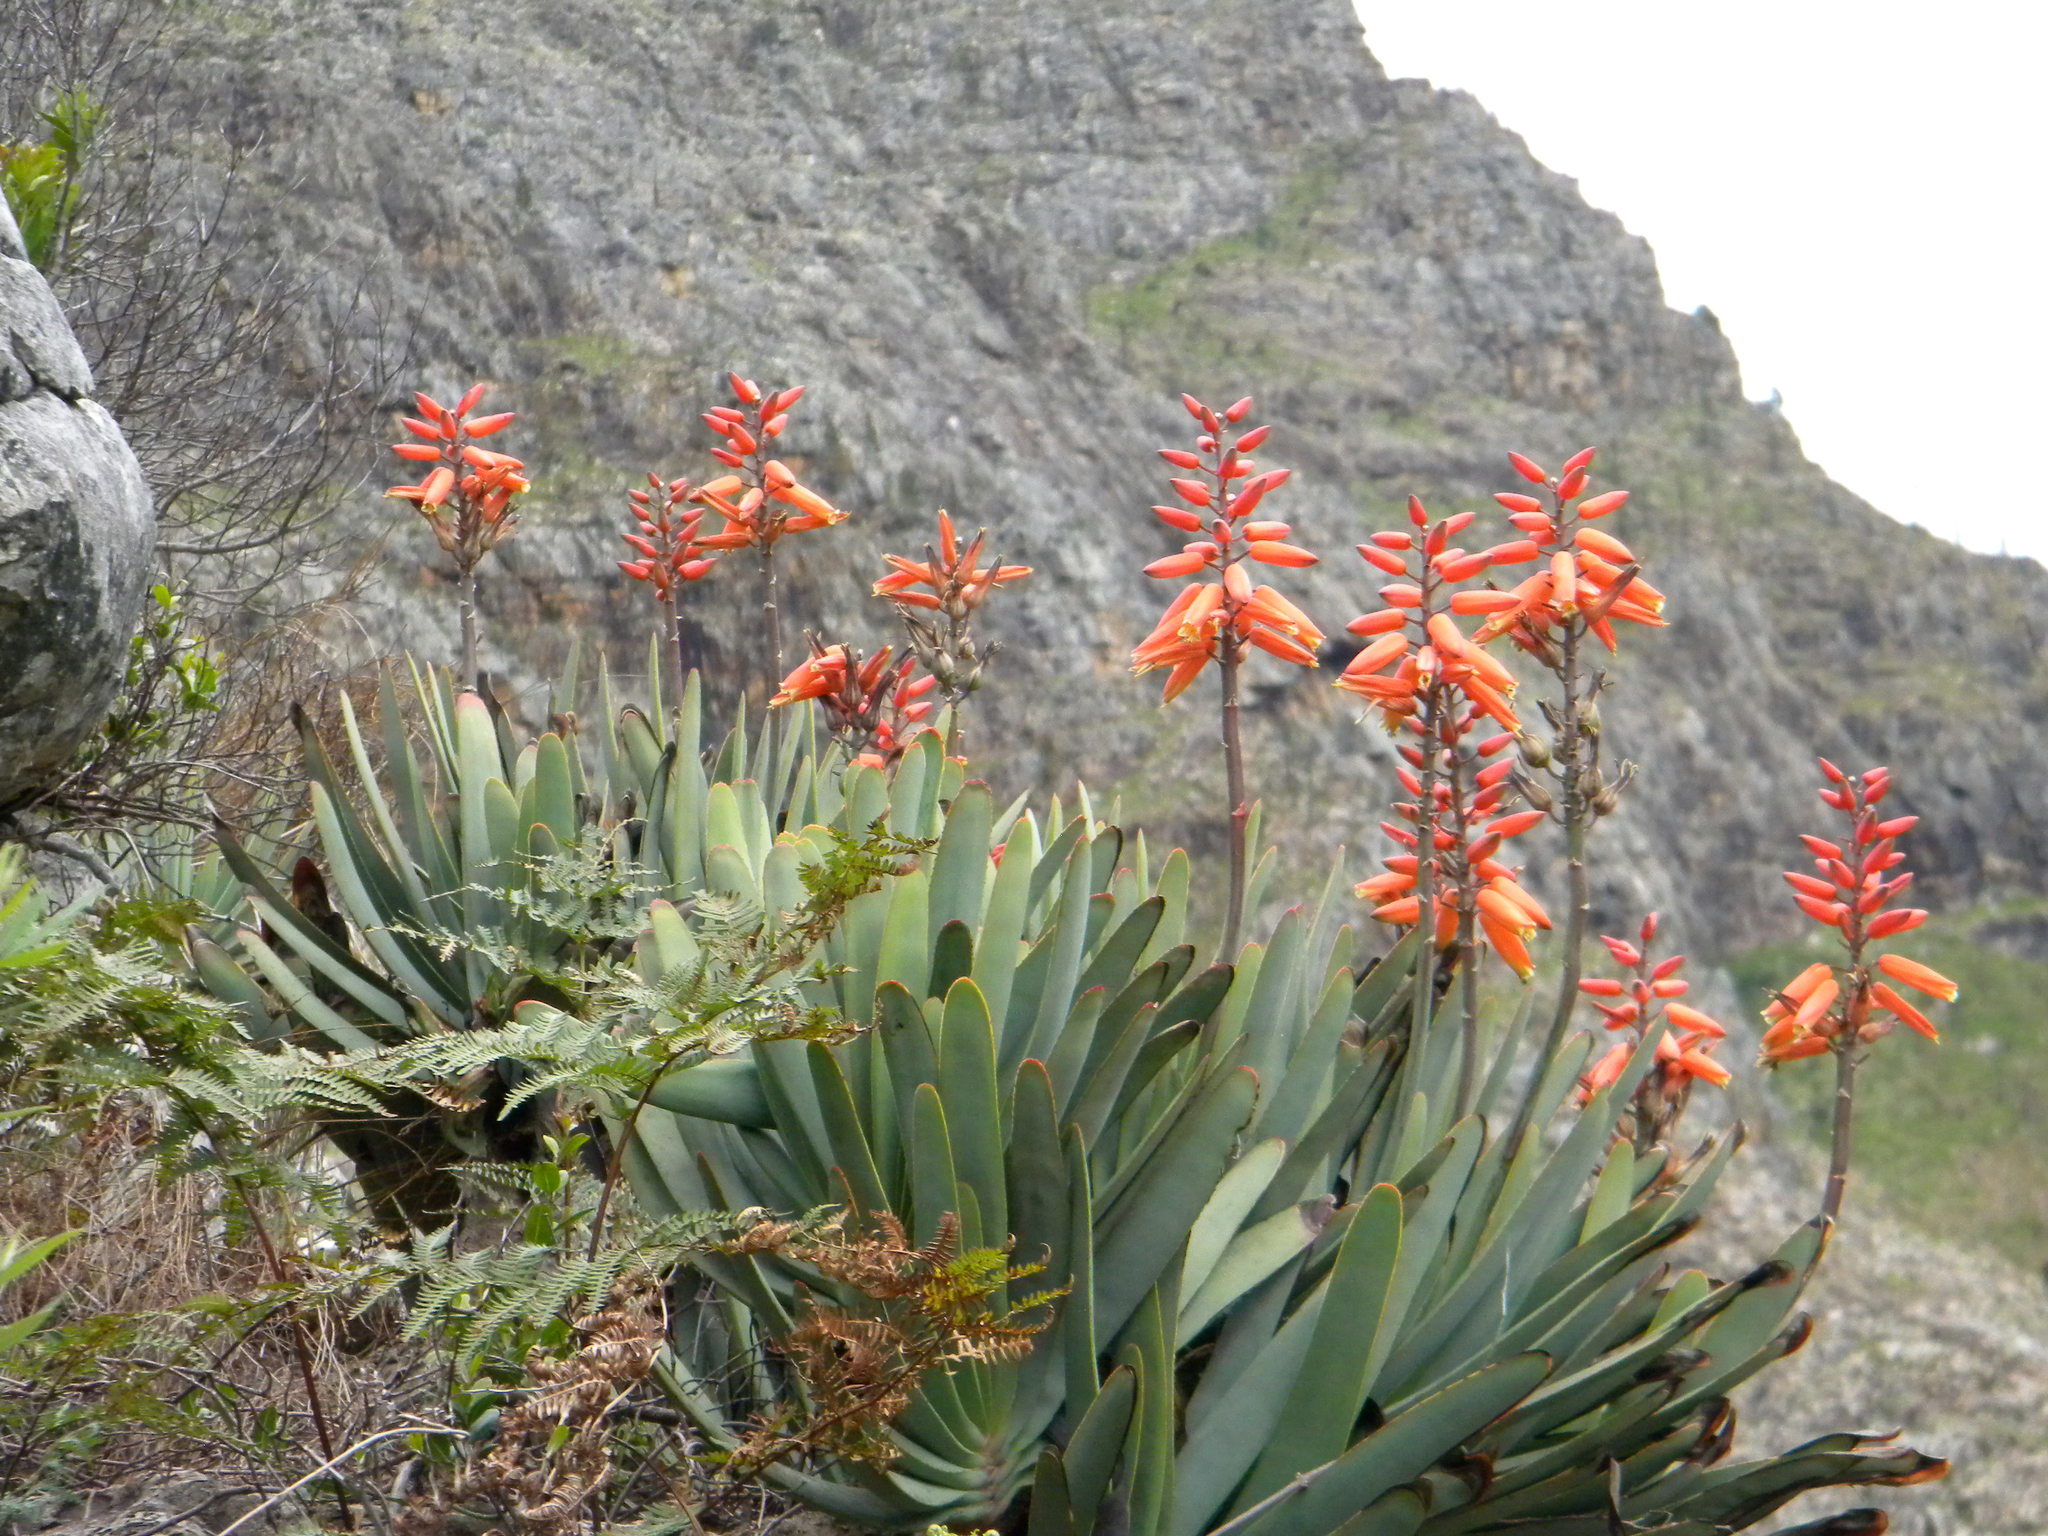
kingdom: Plantae
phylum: Tracheophyta
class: Liliopsida
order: Asparagales
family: Asphodelaceae
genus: Kumara
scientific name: Kumara plicatilis
